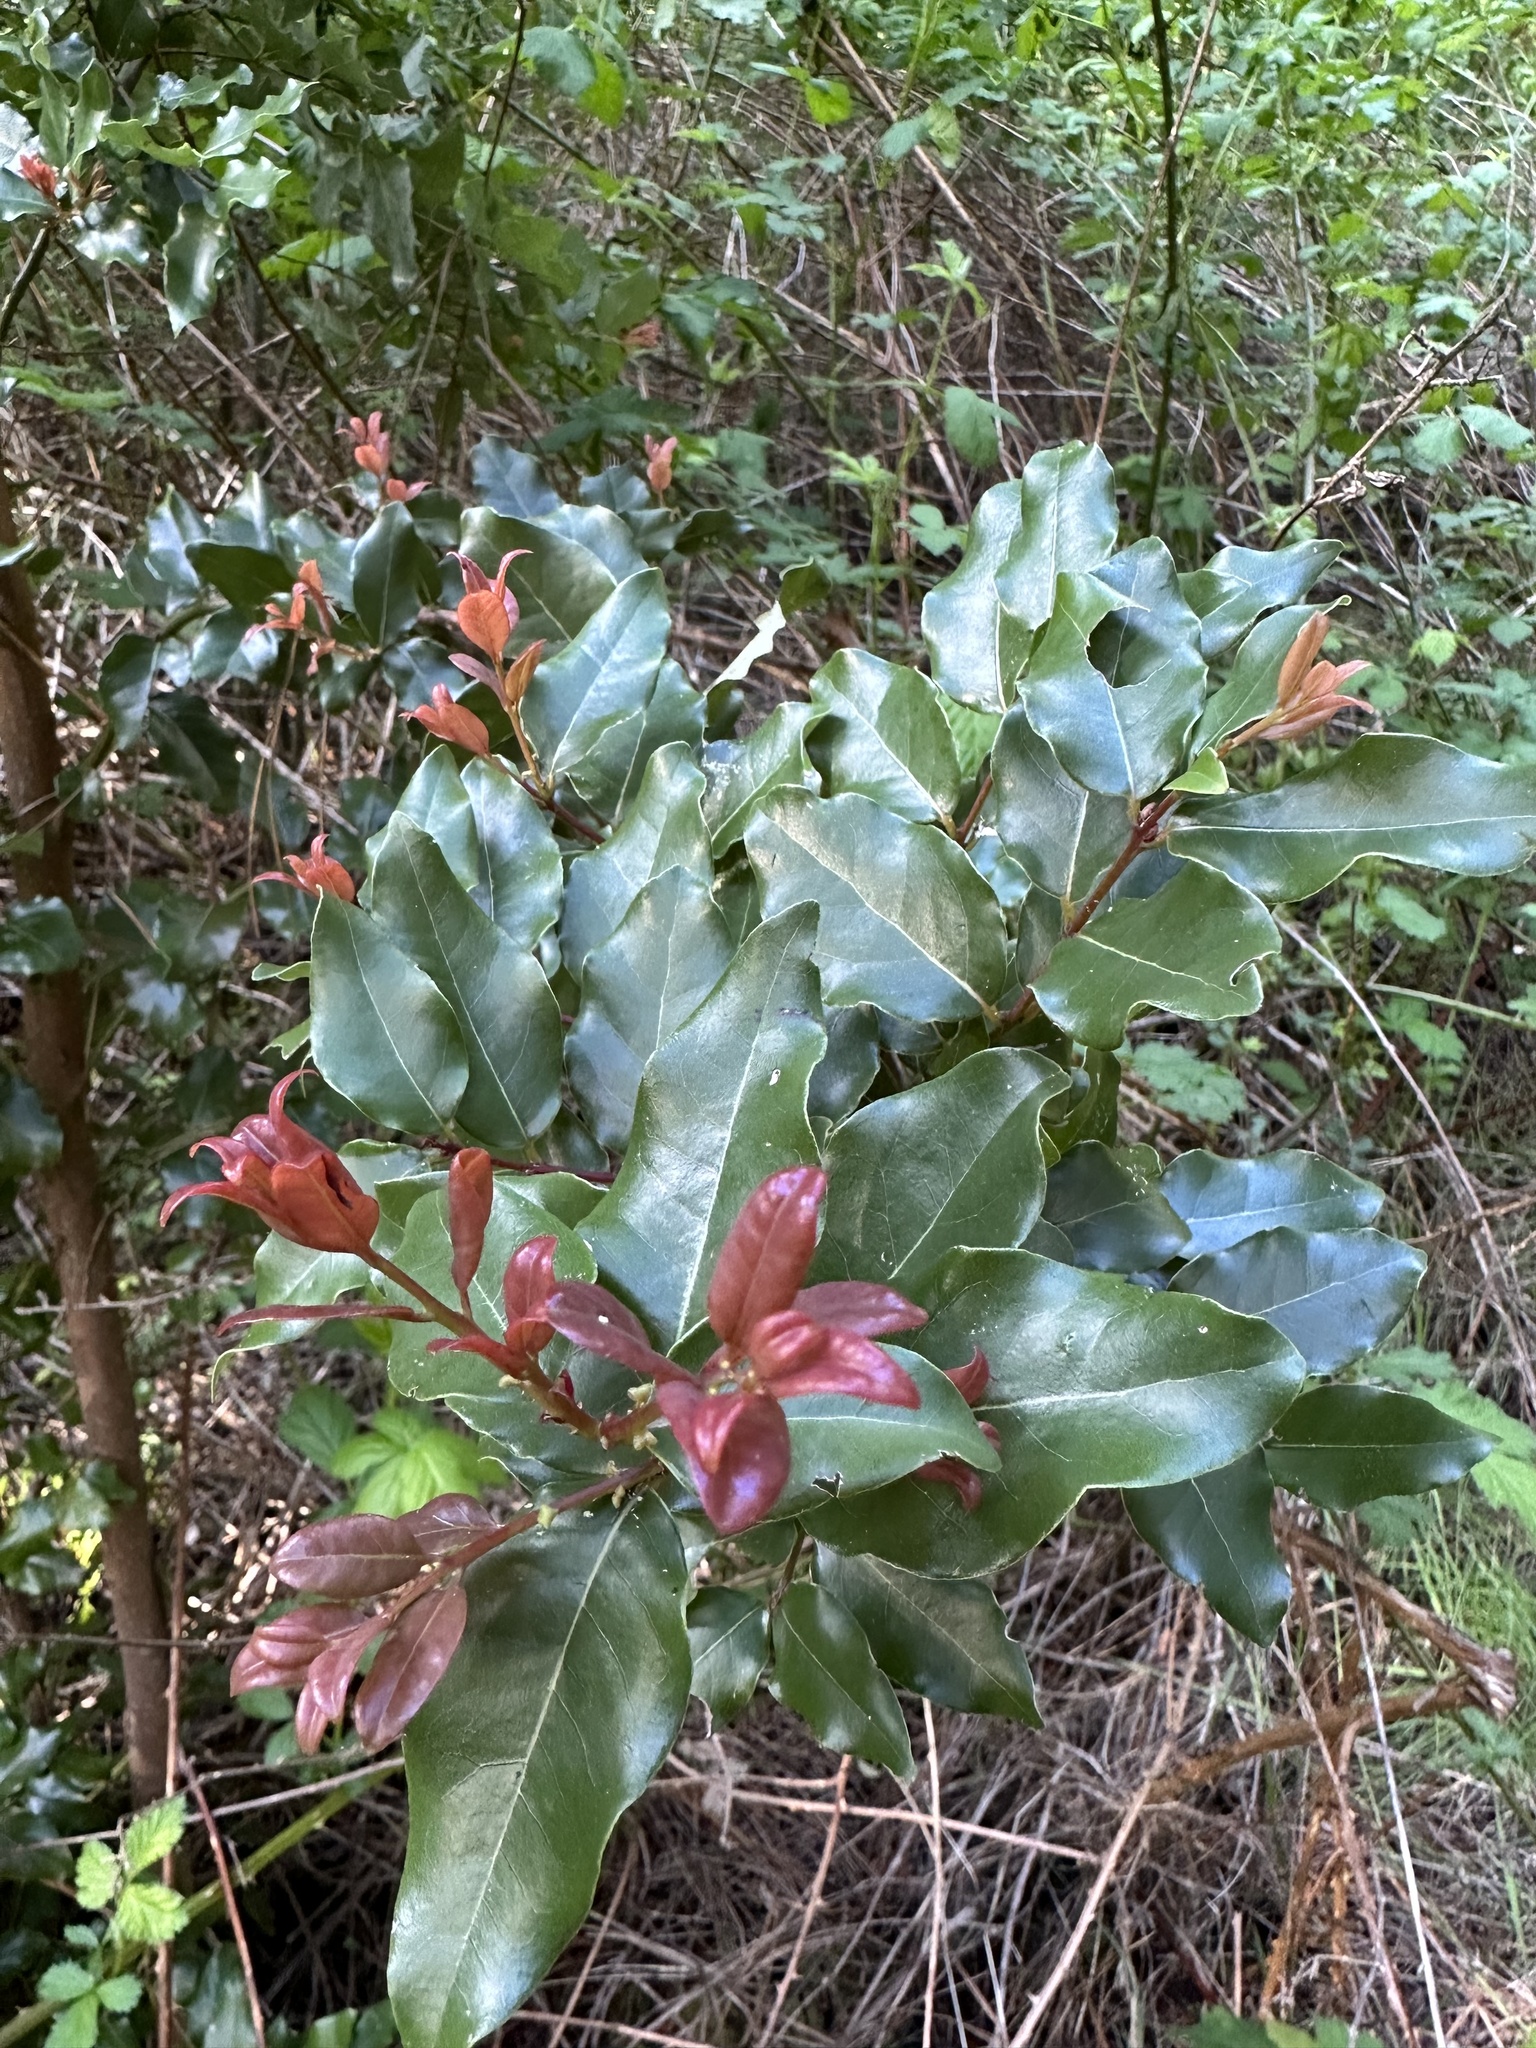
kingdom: Plantae
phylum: Tracheophyta
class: Magnoliopsida
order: Laurales
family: Lauraceae
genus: Cryptocarya
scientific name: Cryptocarya alba
